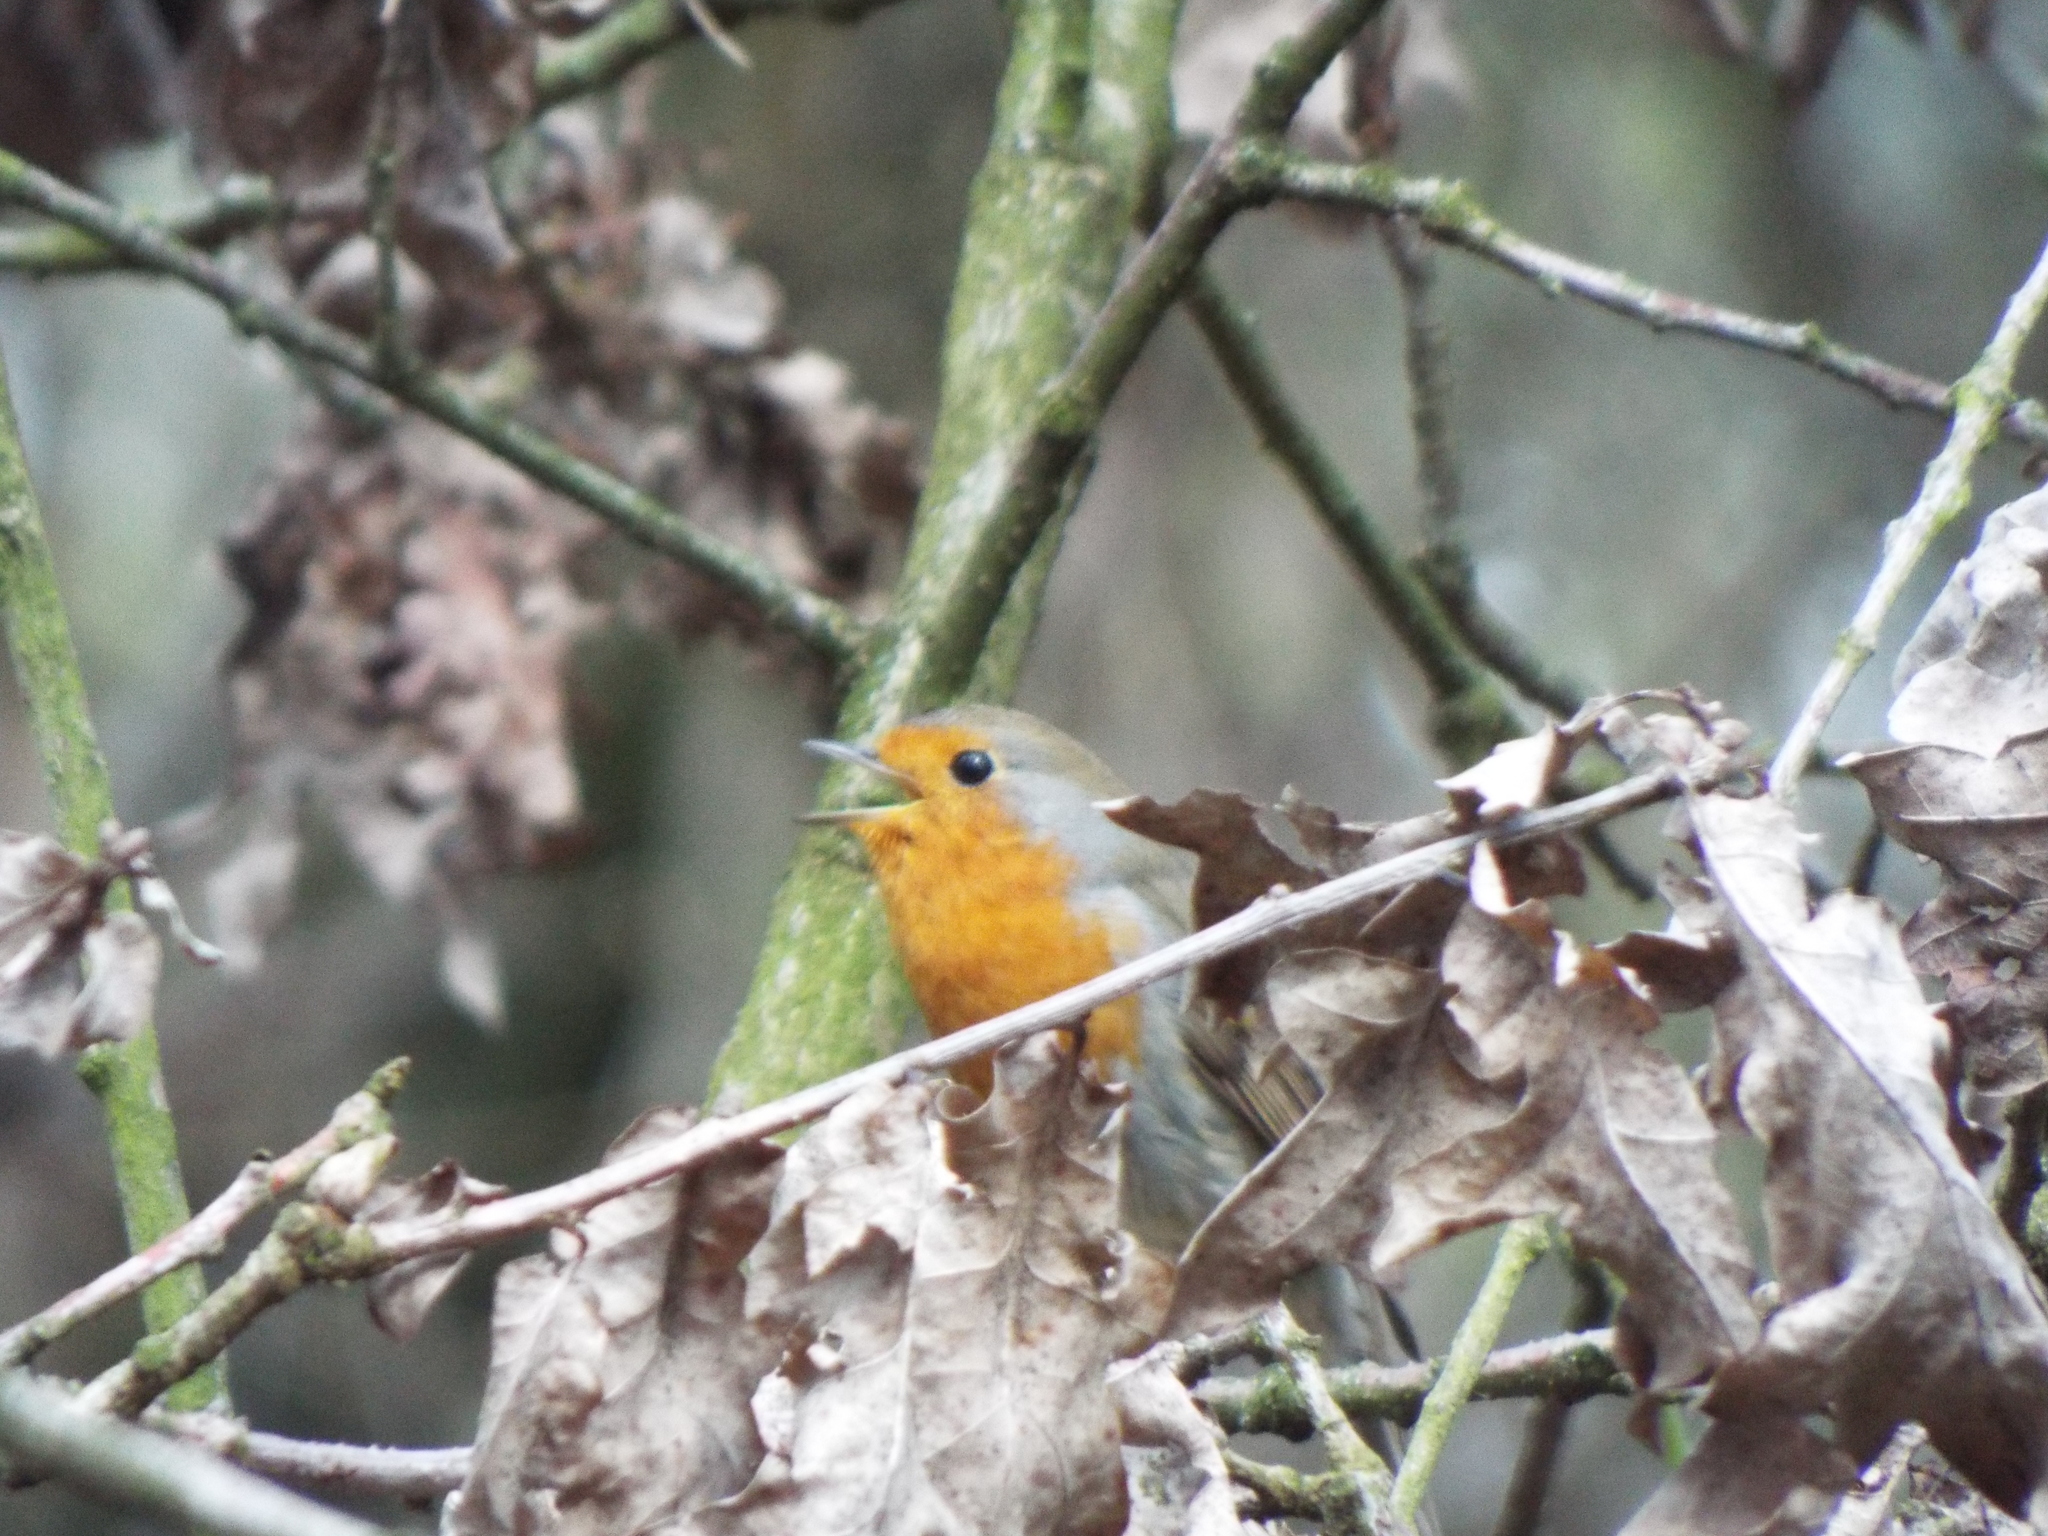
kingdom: Animalia
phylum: Chordata
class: Aves
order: Passeriformes
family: Muscicapidae
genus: Erithacus
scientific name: Erithacus rubecula
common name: European robin
